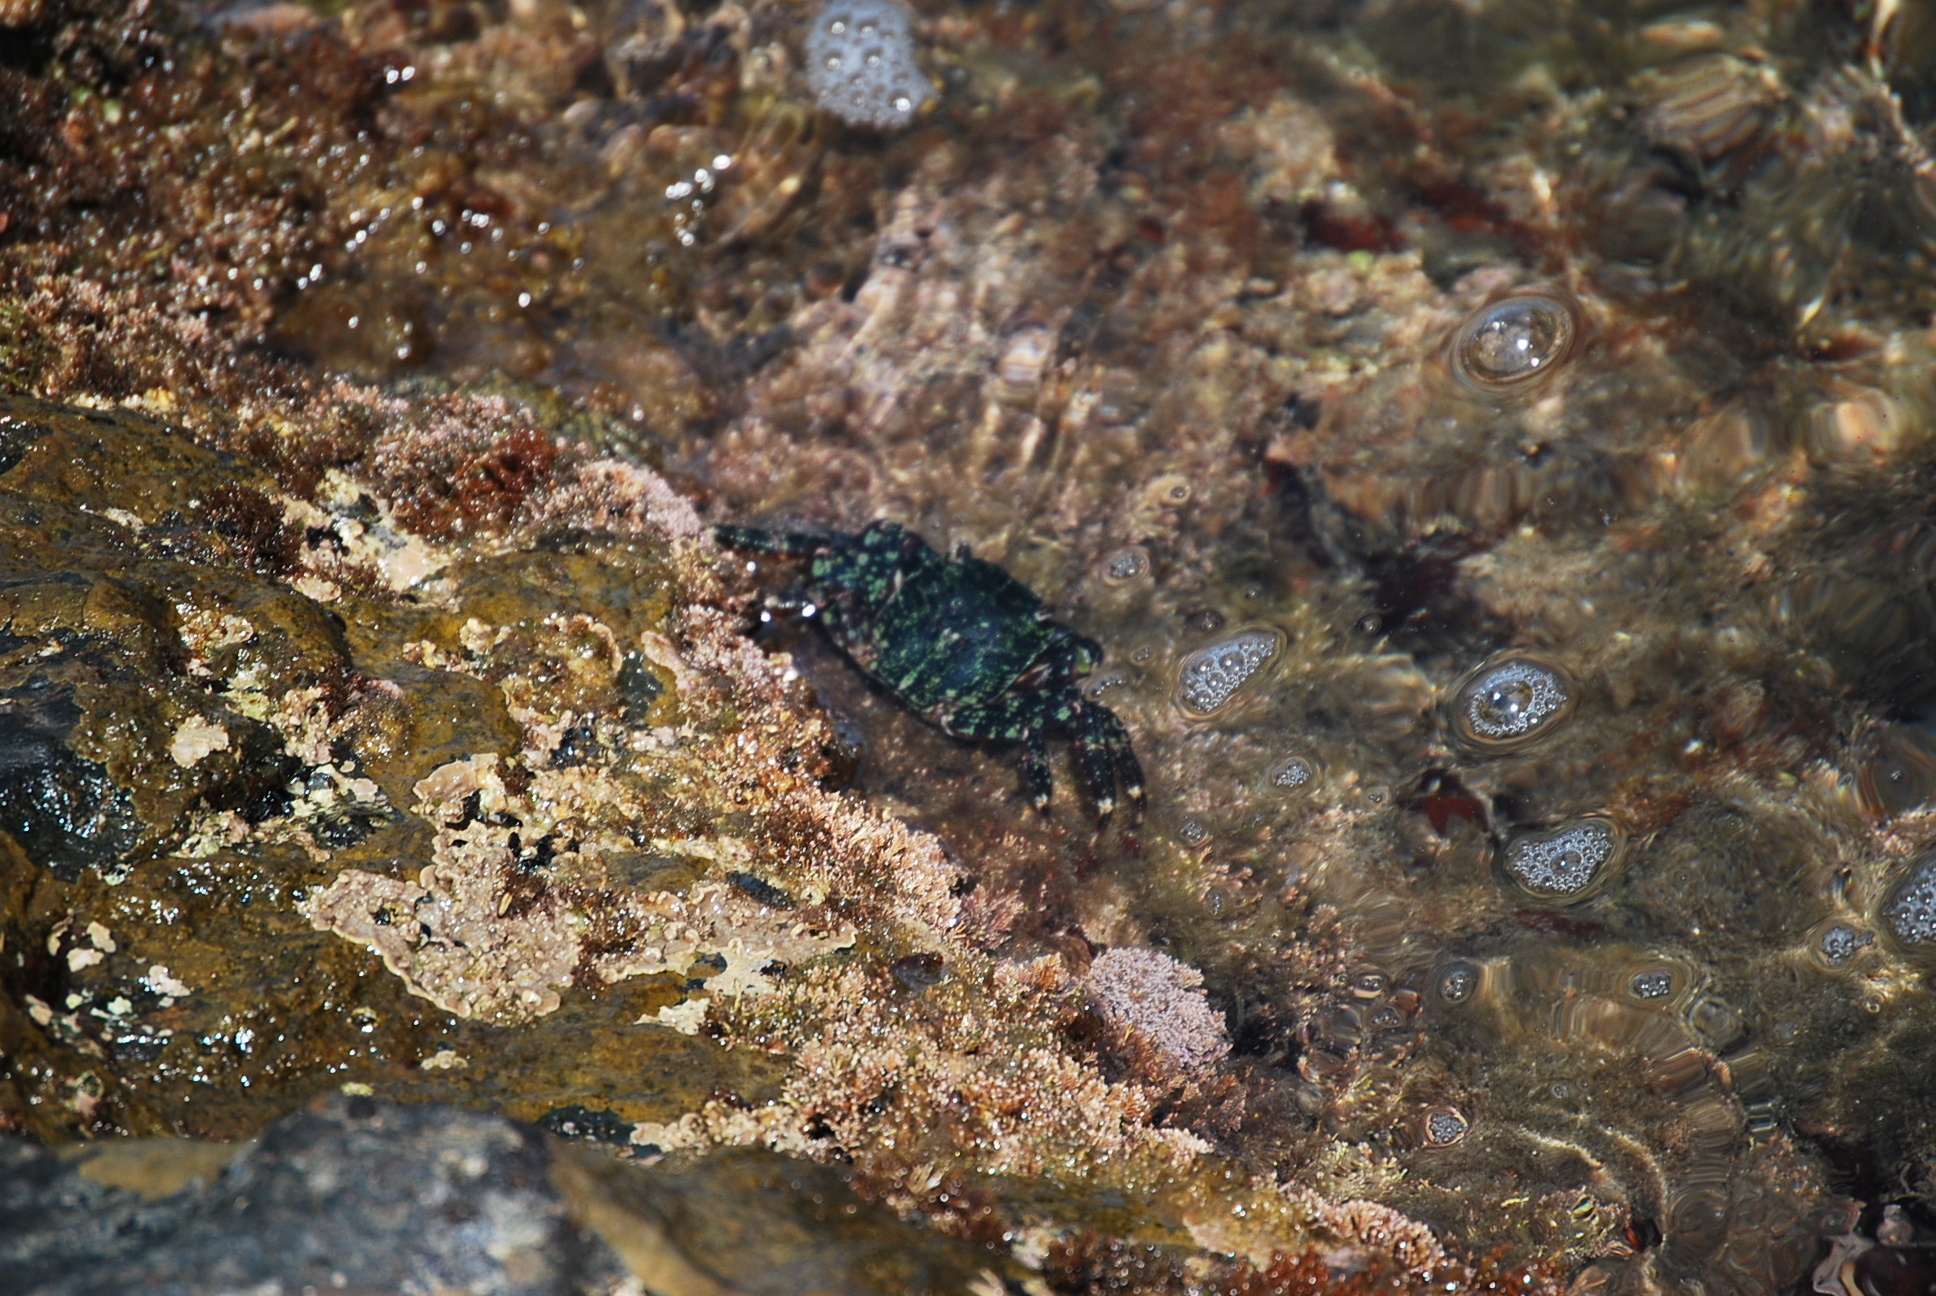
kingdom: Animalia
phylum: Arthropoda
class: Malacostraca
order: Decapoda
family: Grapsidae
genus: Pachygrapsus
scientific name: Pachygrapsus marmoratus
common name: Marbled rock crab
